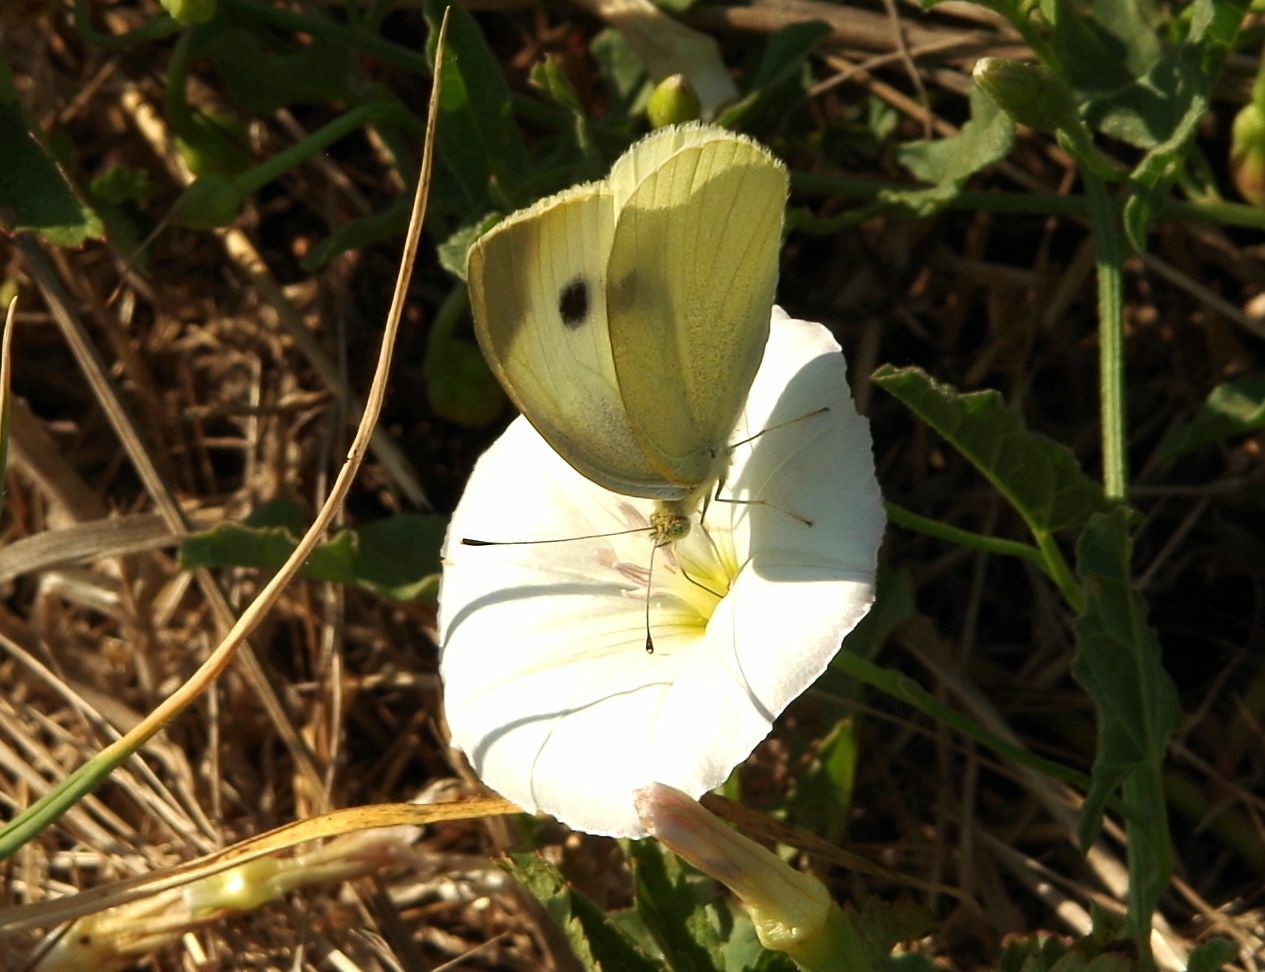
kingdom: Animalia
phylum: Arthropoda
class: Insecta
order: Lepidoptera
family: Pieridae
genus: Pieris
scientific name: Pieris rapae
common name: Small white
